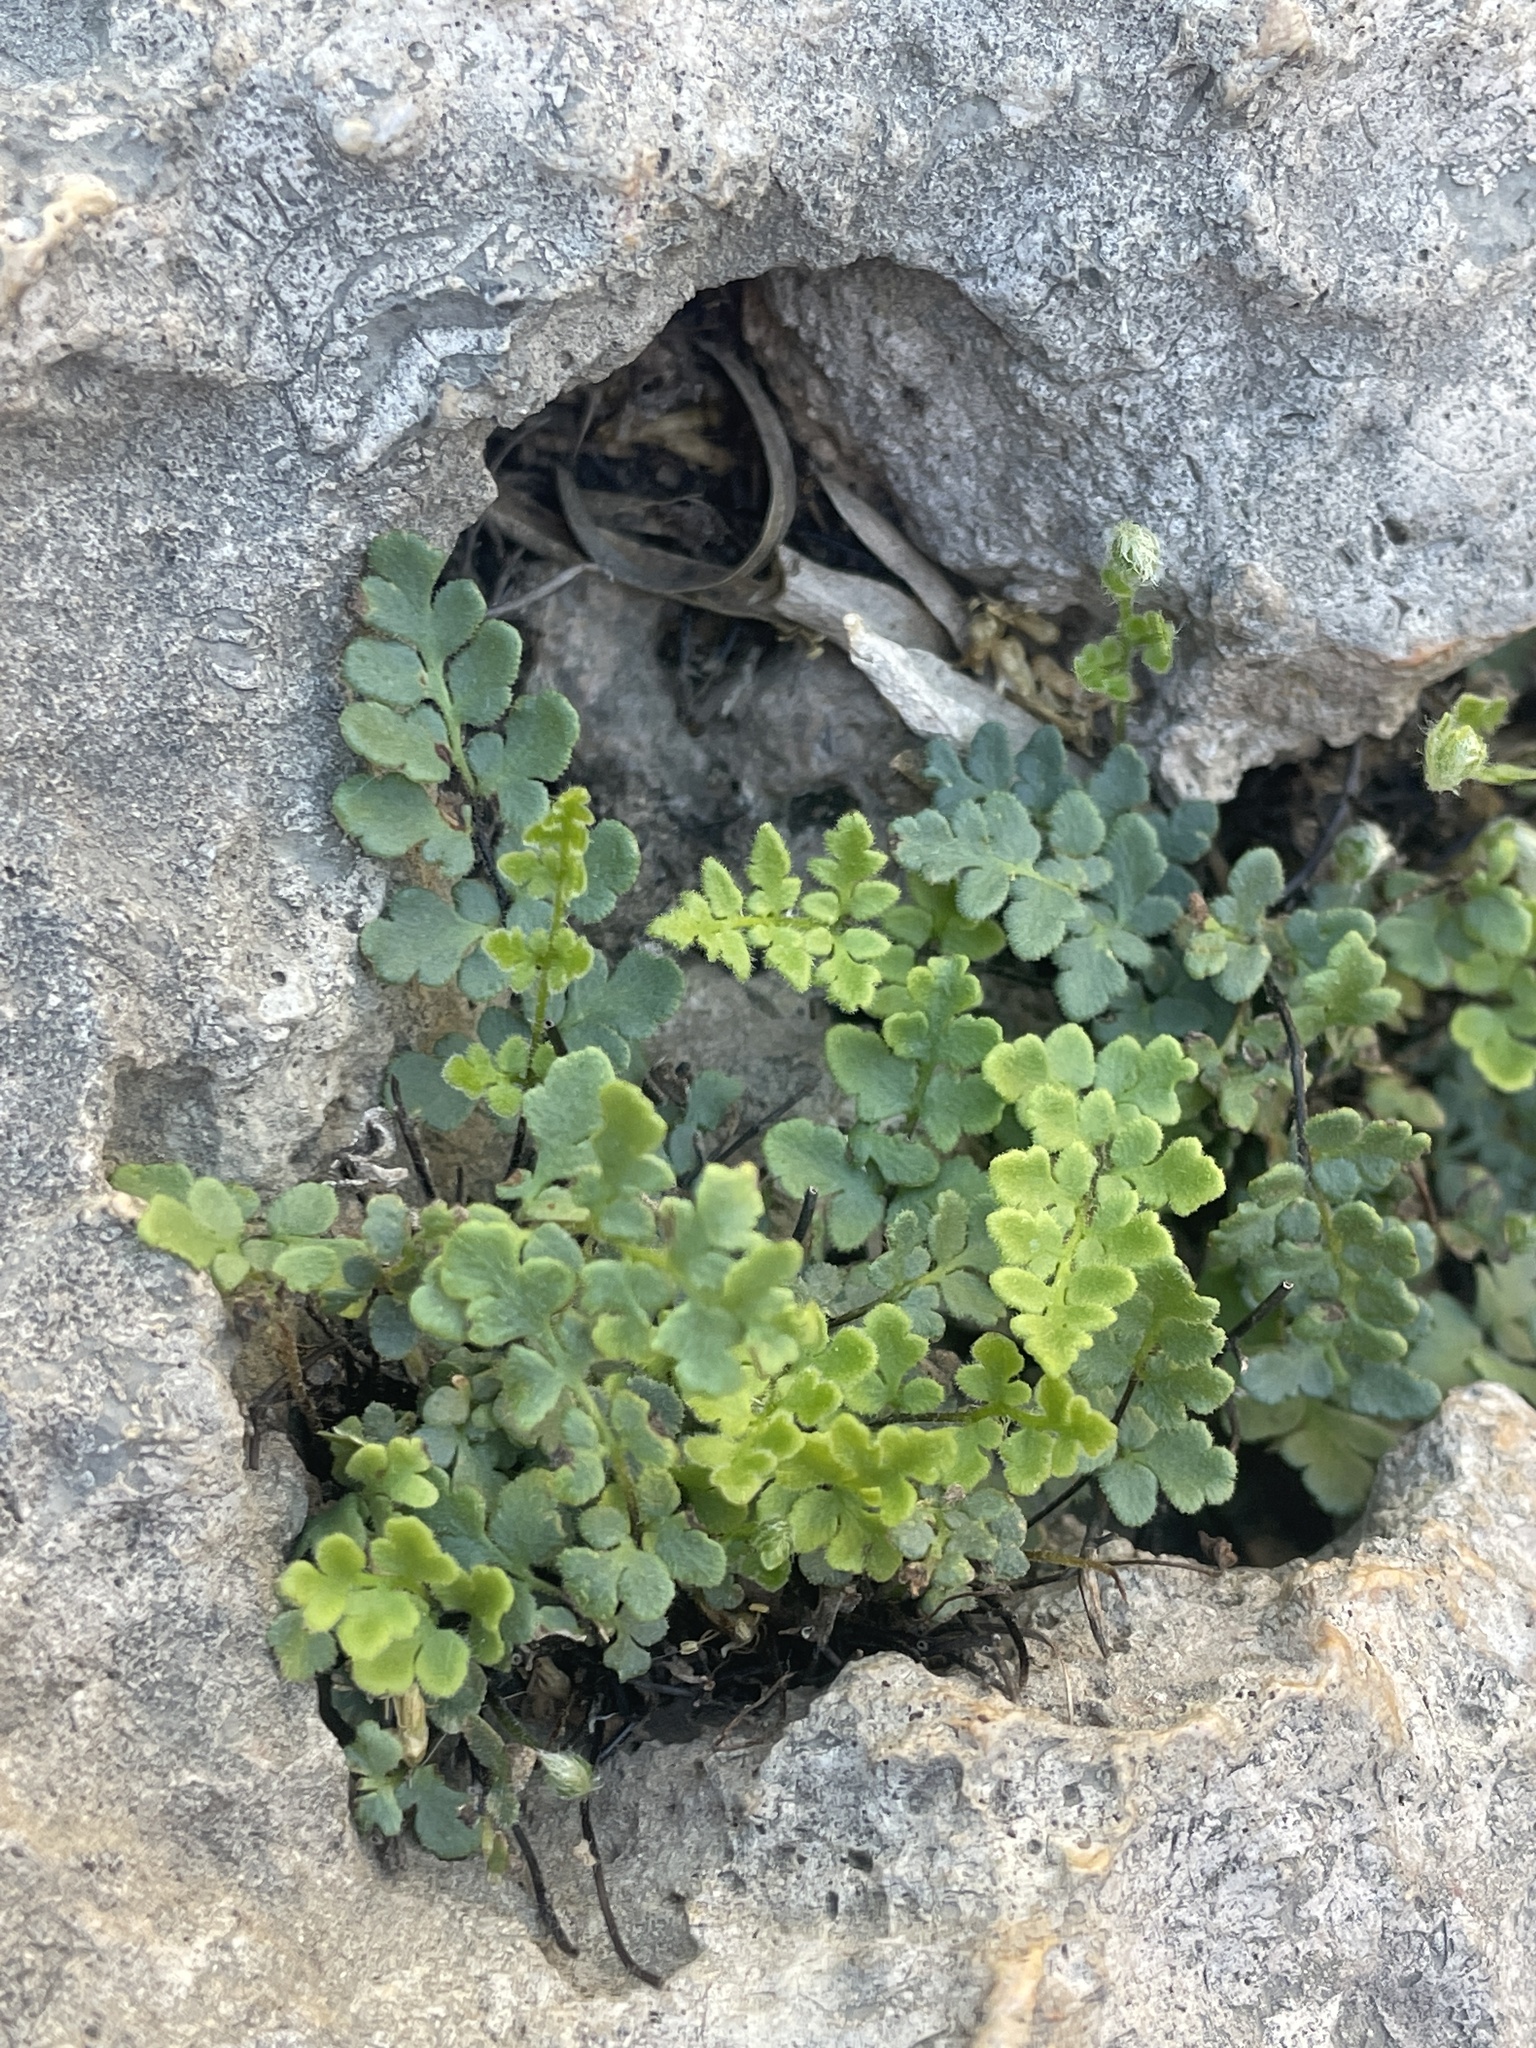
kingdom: Plantae
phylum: Tracheophyta
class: Polypodiopsida
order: Polypodiales
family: Pteridaceae
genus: Myriopteris
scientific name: Myriopteris scabra
